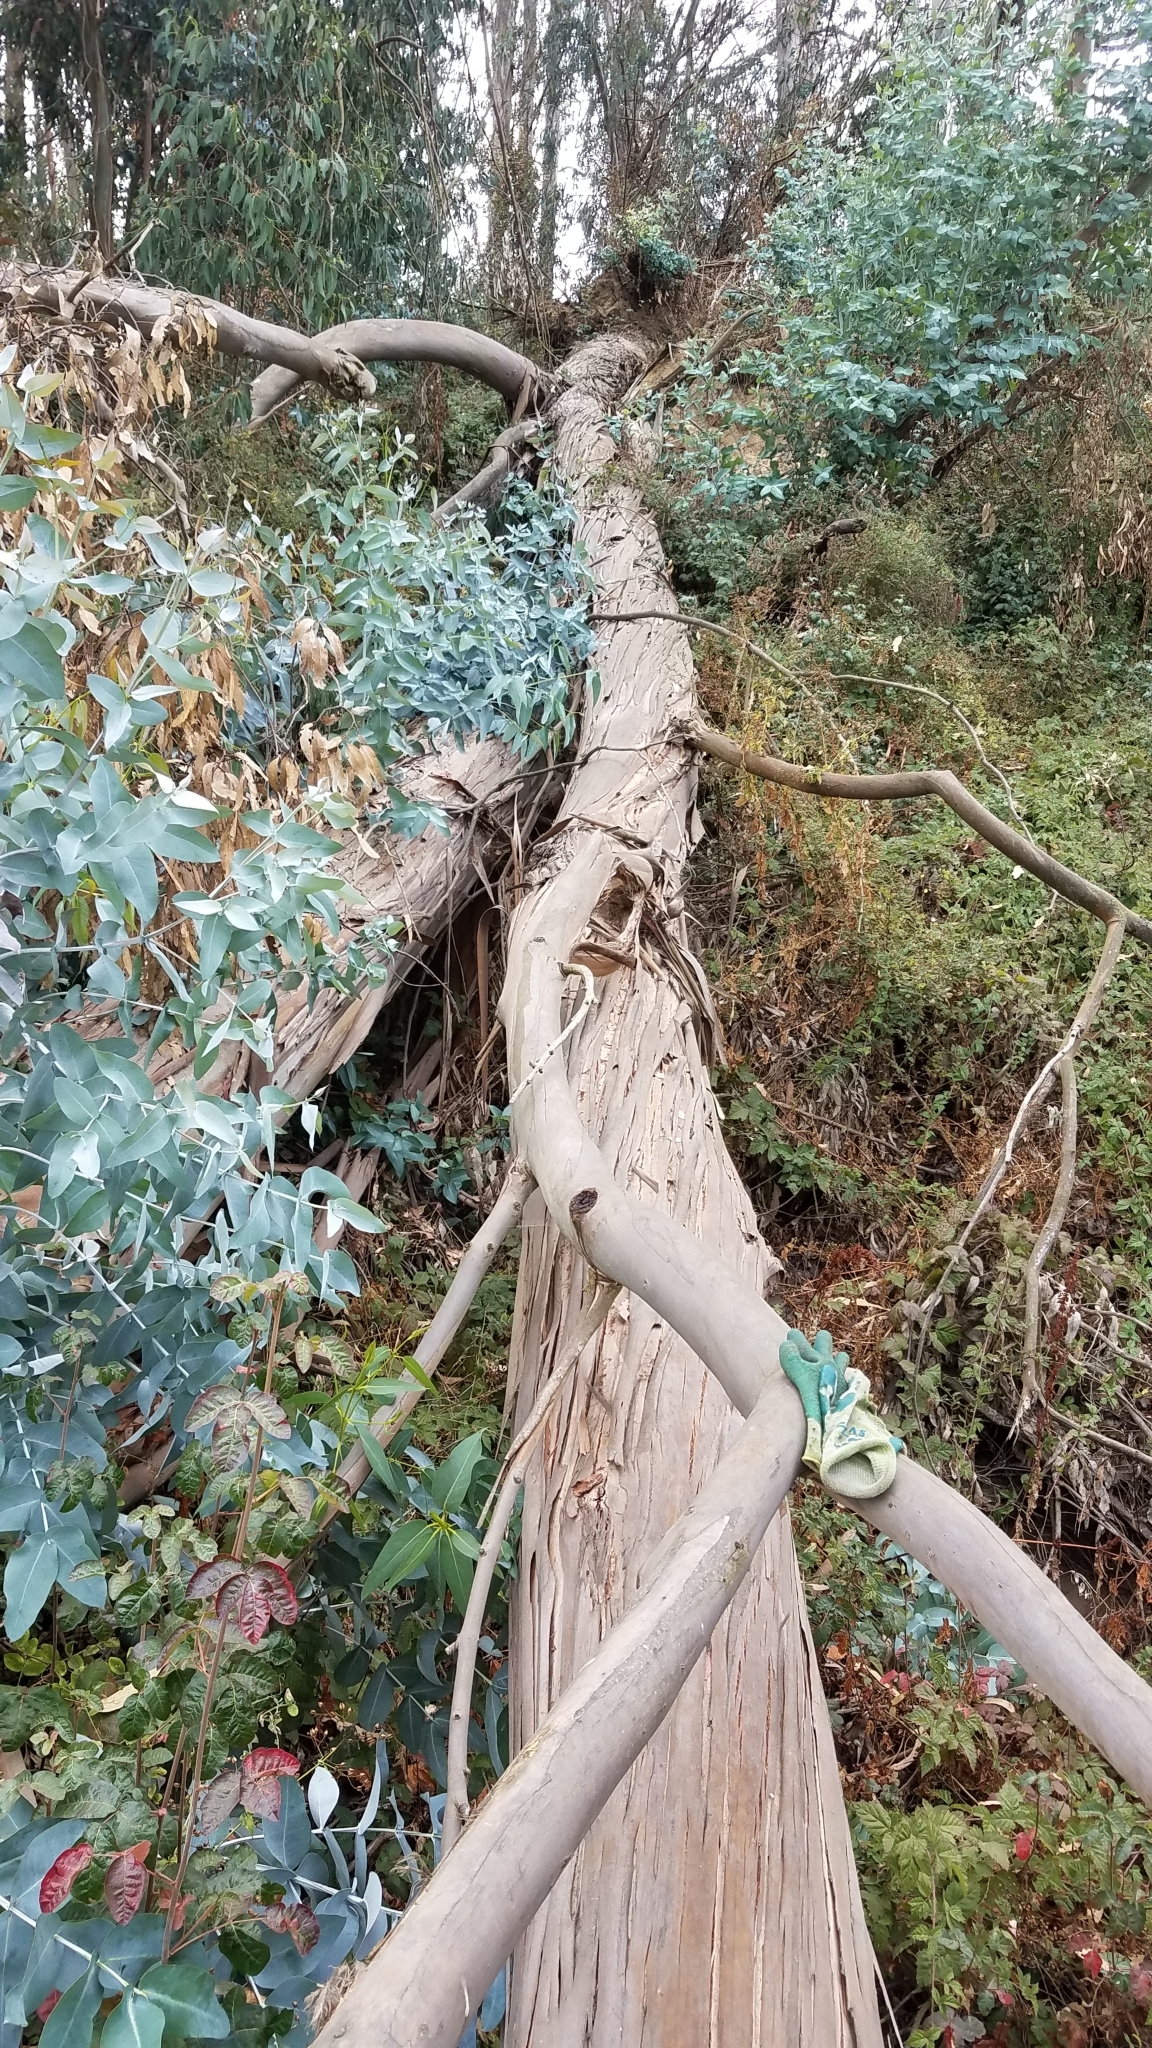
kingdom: Plantae
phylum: Tracheophyta
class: Magnoliopsida
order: Myrtales
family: Myrtaceae
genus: Eucalyptus
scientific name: Eucalyptus globulus
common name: Southern blue-gum
